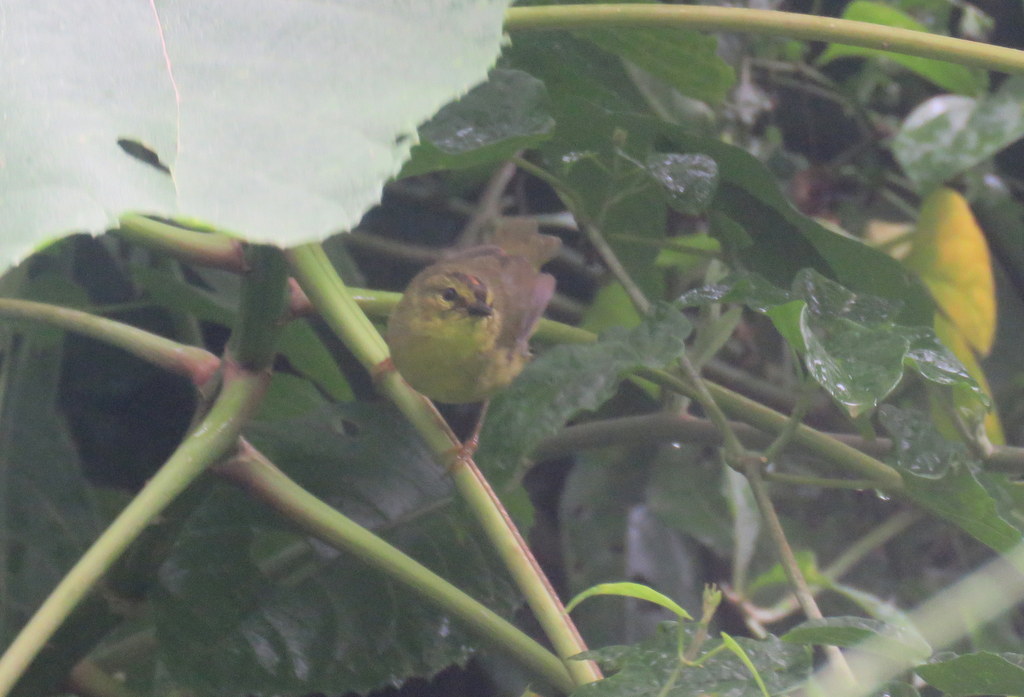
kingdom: Animalia
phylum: Chordata
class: Aves
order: Passeriformes
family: Parulidae
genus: Myiothlypis
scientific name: Myiothlypis bivittata
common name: Two-banded warbler
